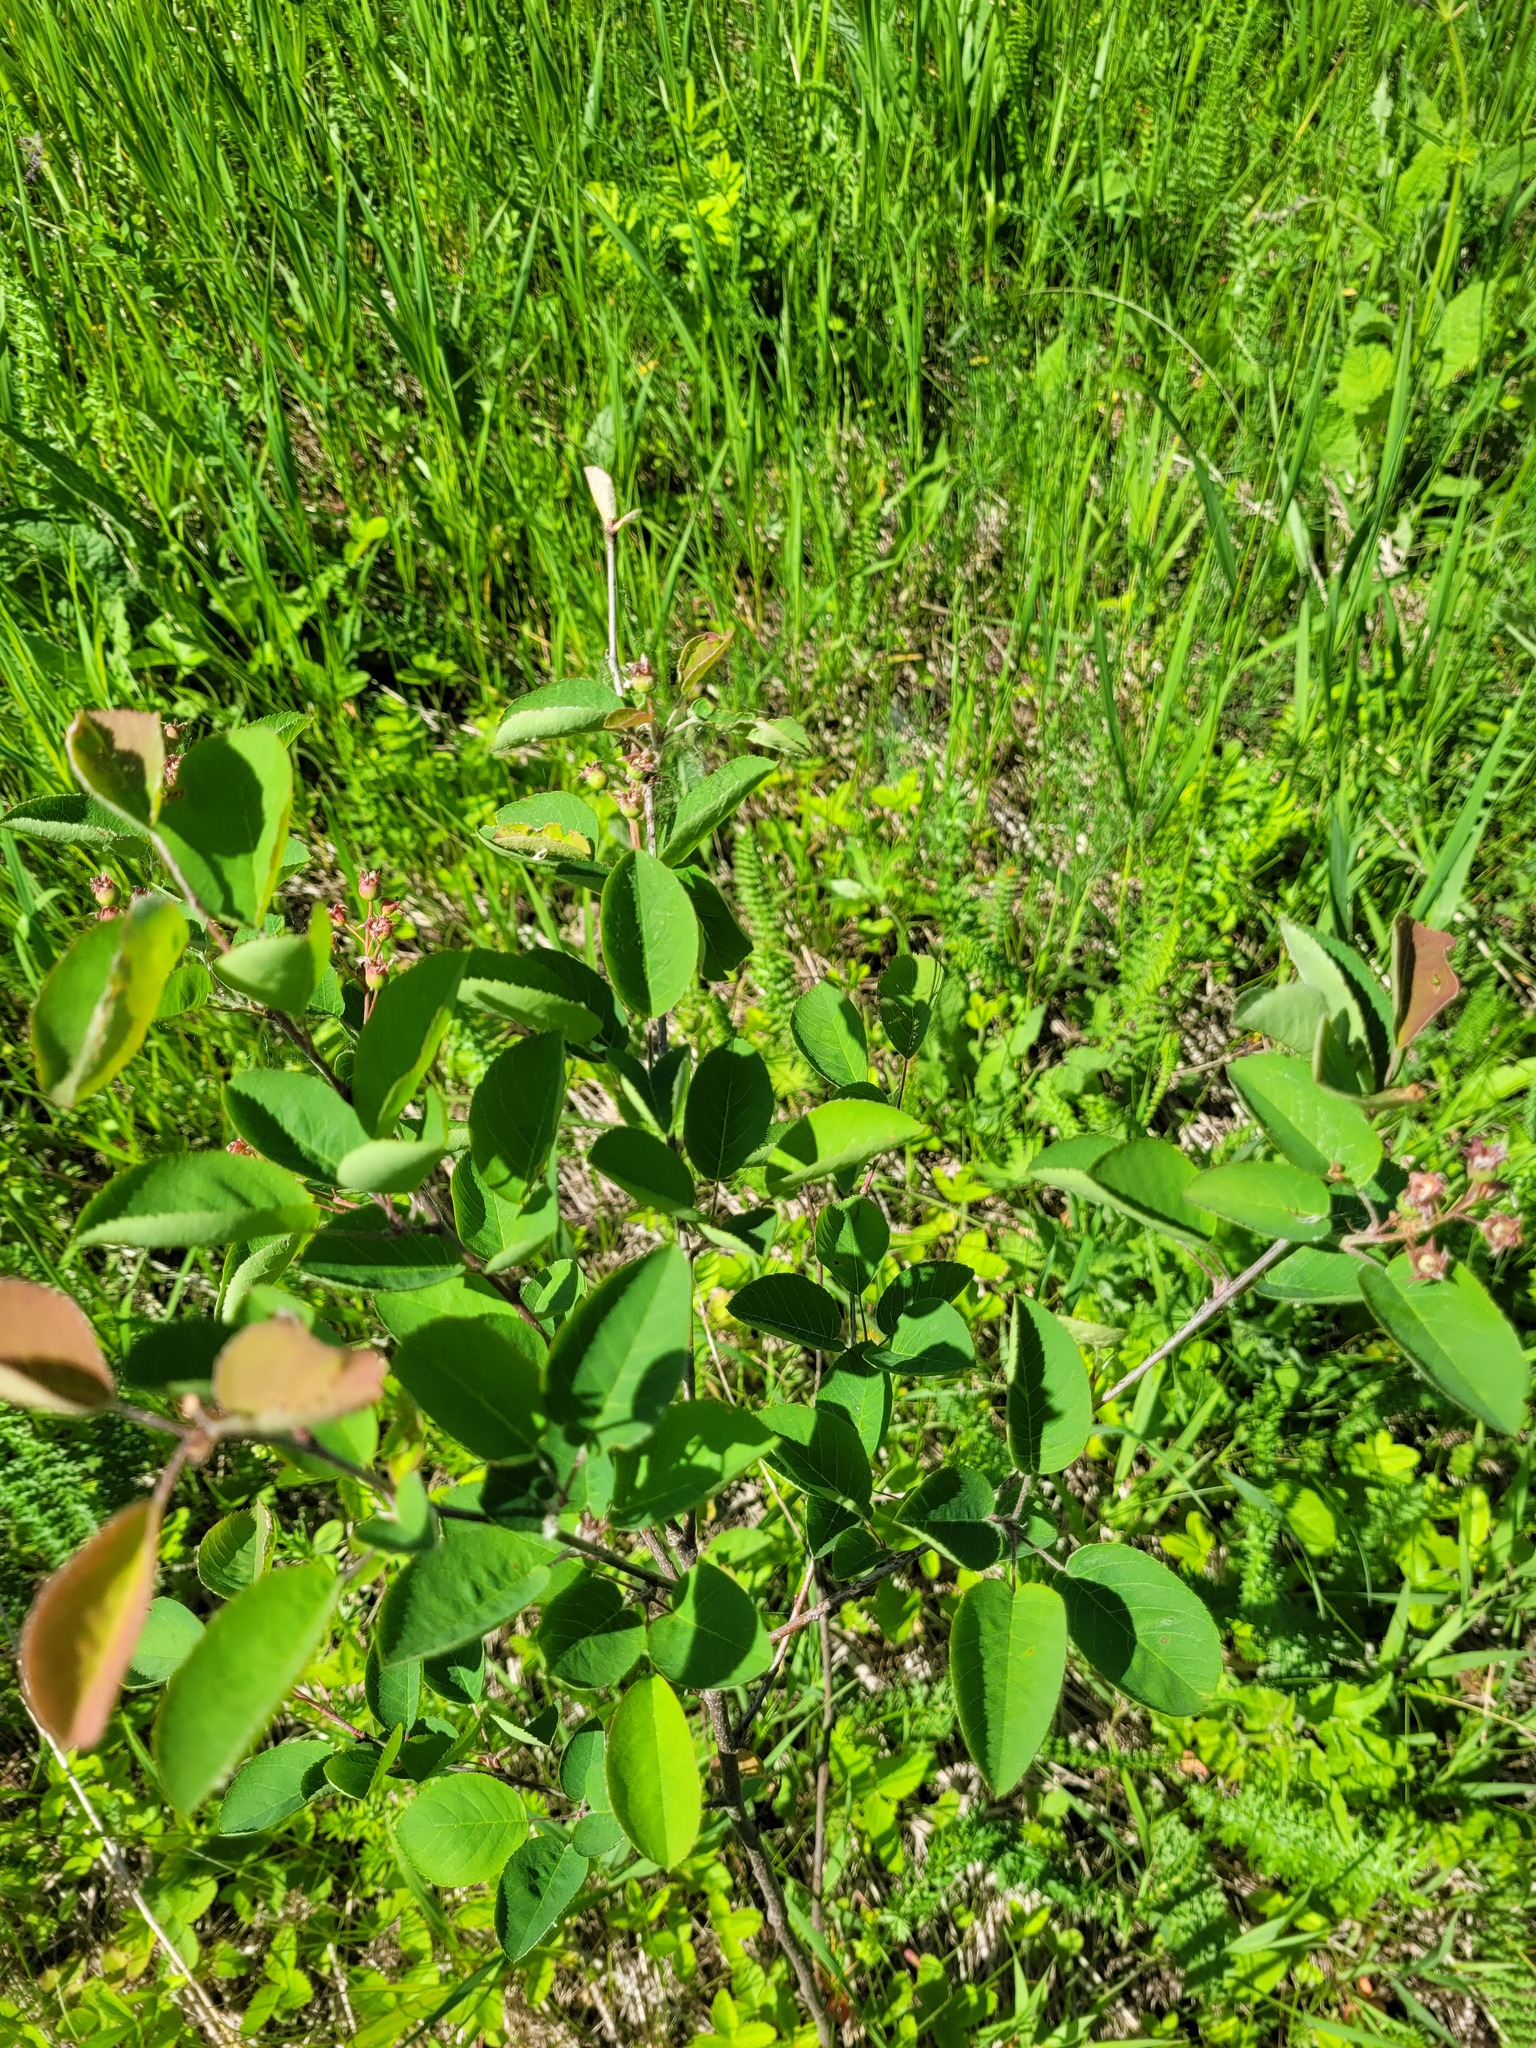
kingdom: Plantae
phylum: Tracheophyta
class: Magnoliopsida
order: Rosales
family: Rosaceae
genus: Amelanchier
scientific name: Amelanchier
